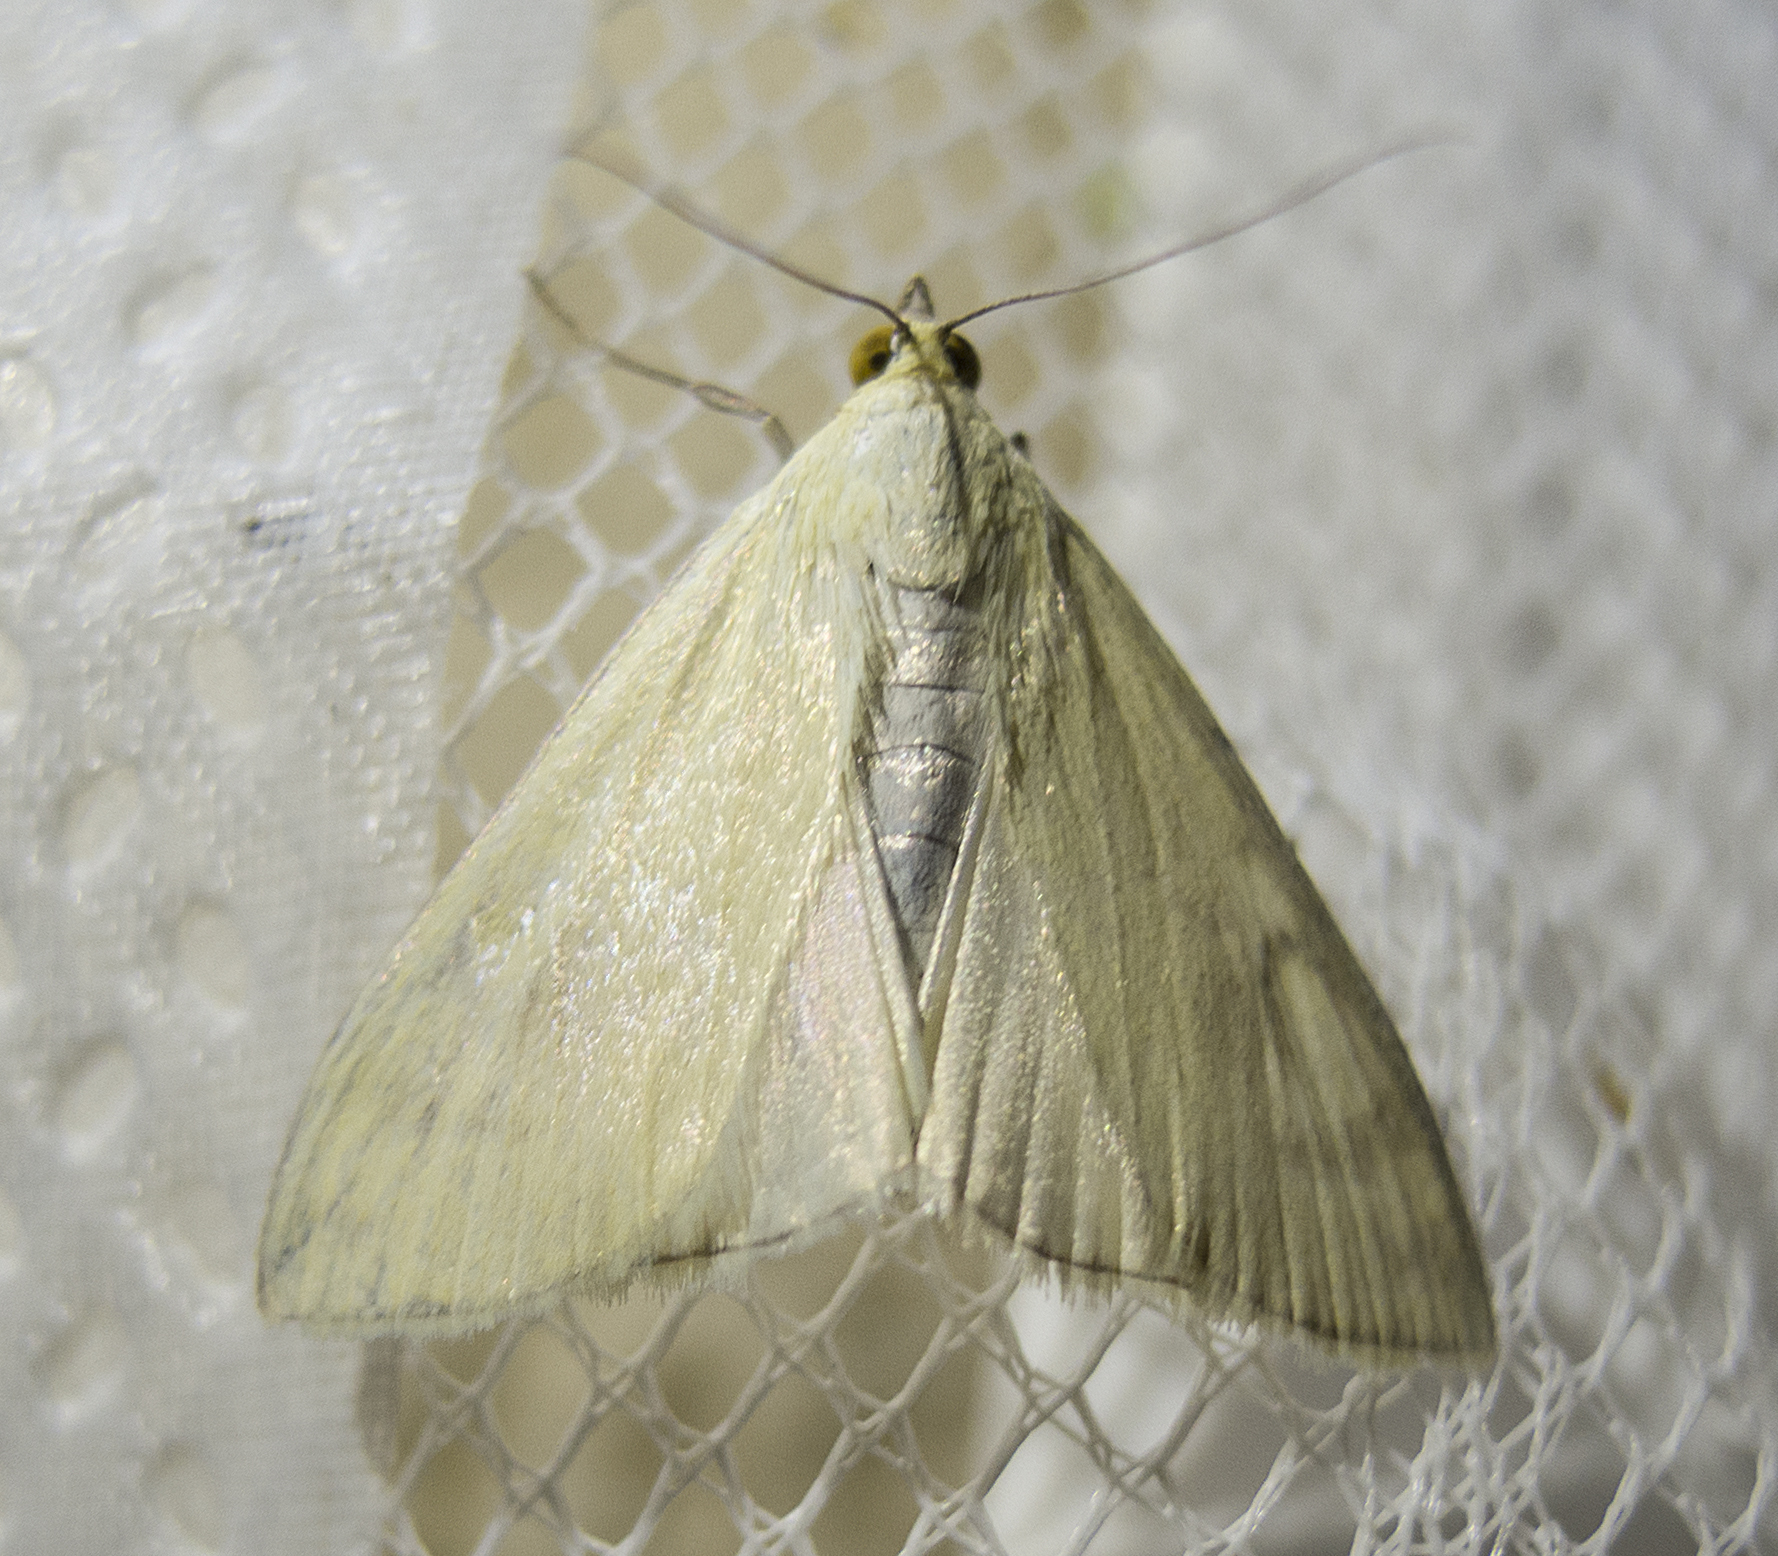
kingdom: Animalia
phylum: Arthropoda
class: Insecta
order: Lepidoptera
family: Crambidae
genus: Sitochroa
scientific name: Sitochroa palealis
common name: Greenish-yellow sitochroa moth
